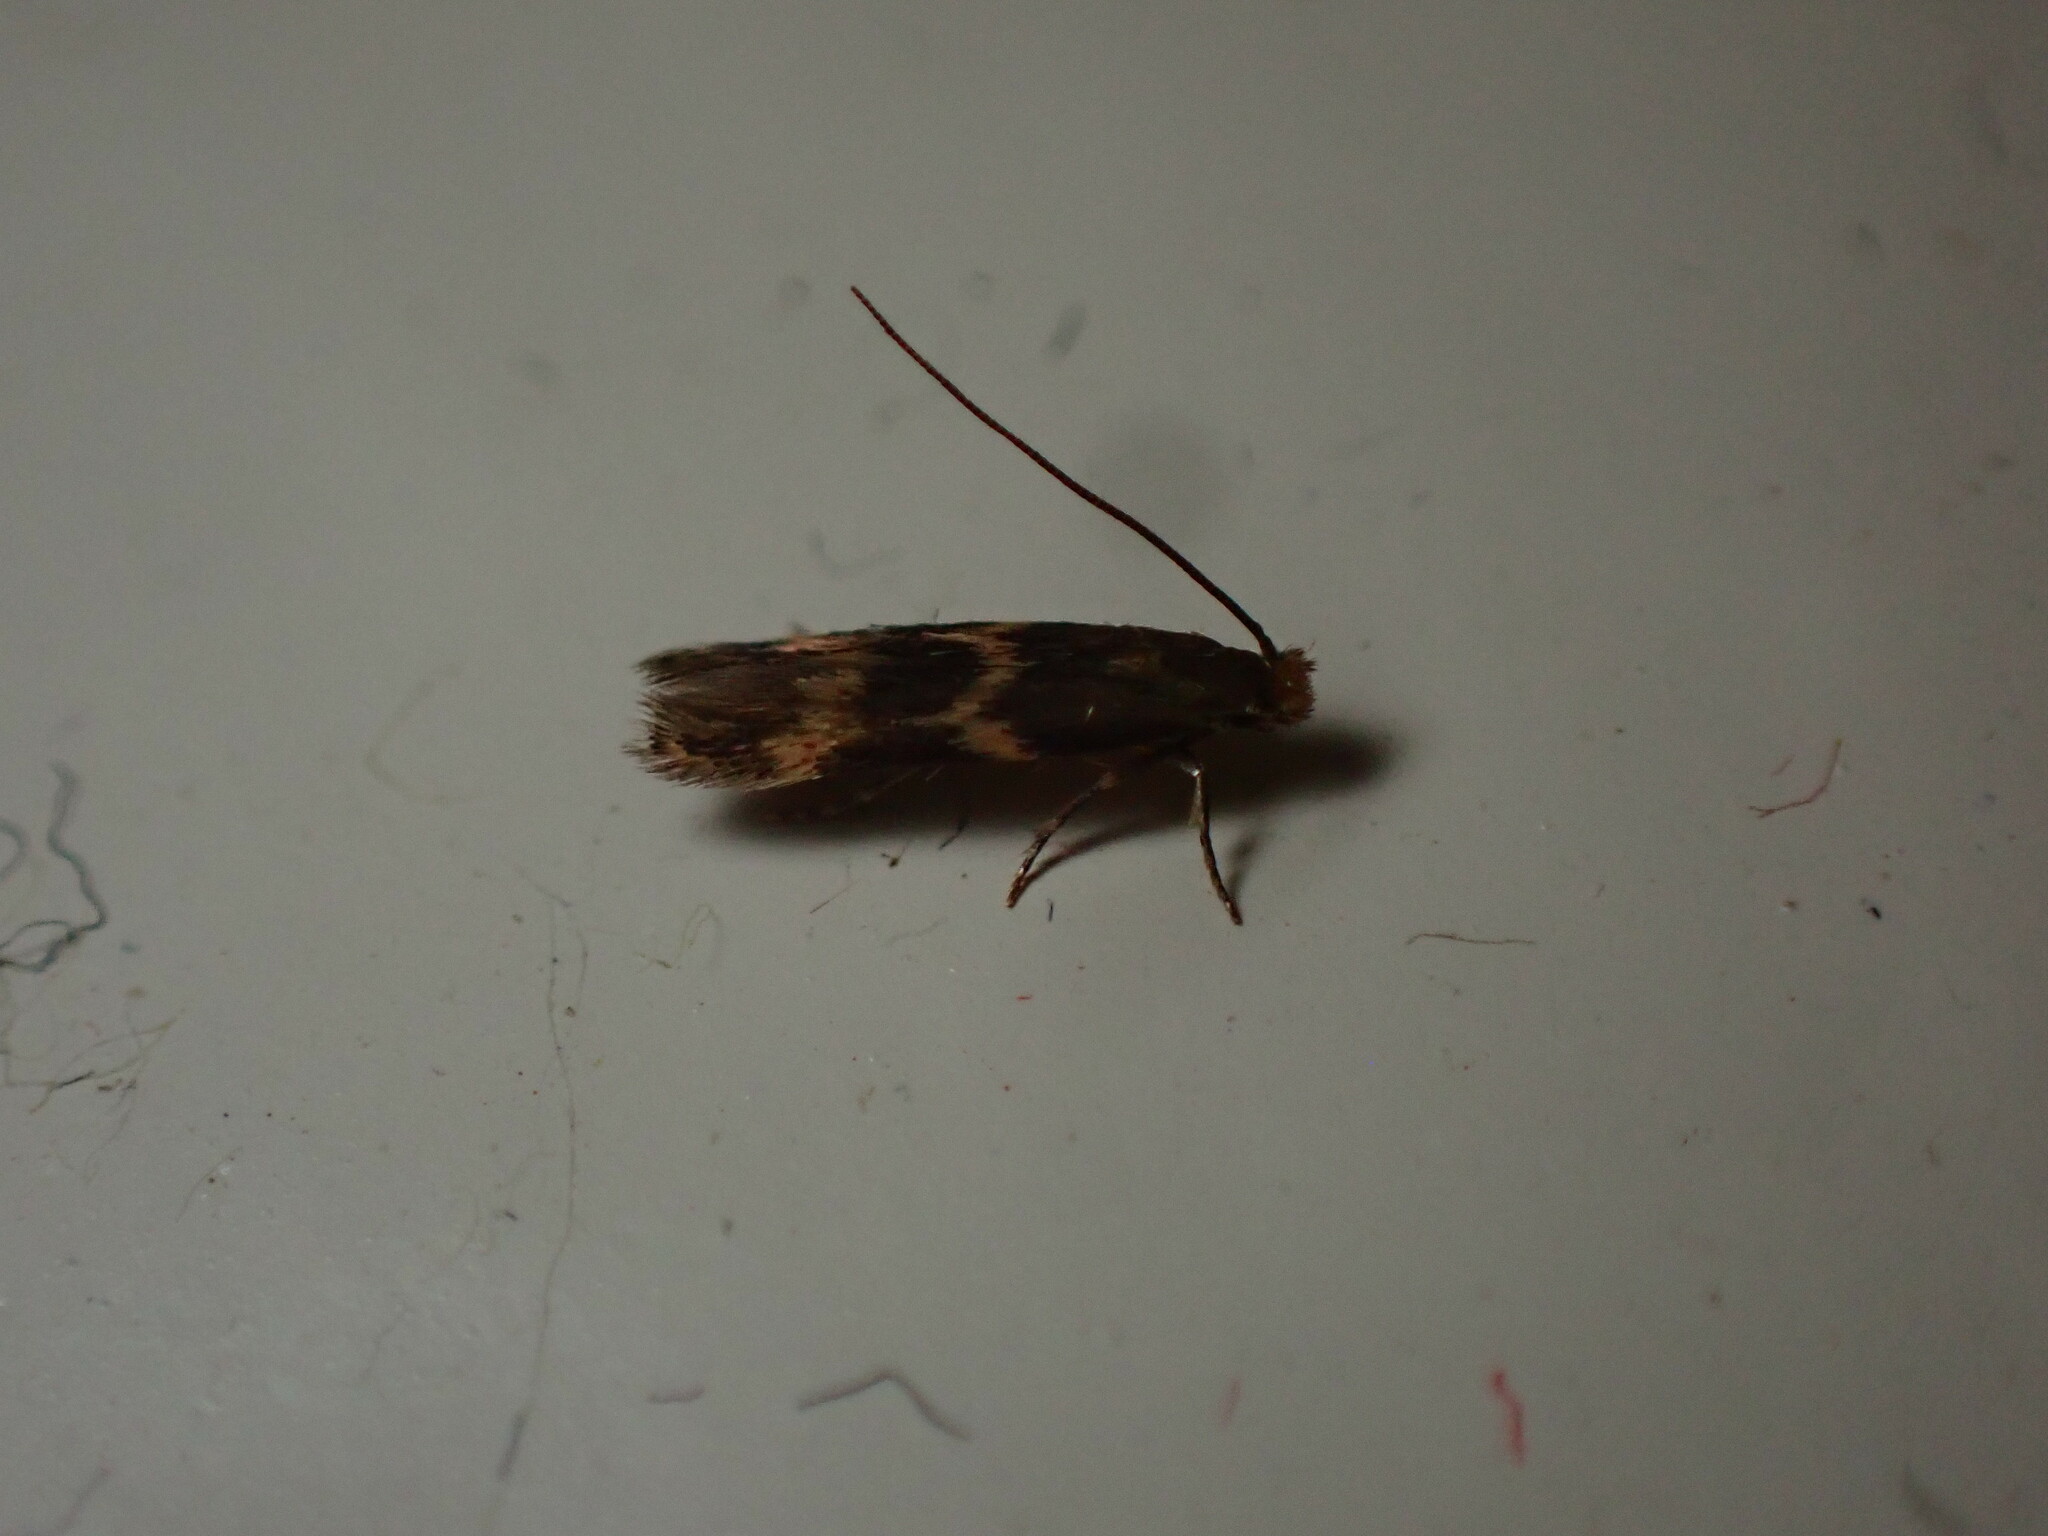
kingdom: Animalia
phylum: Arthropoda
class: Insecta
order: Lepidoptera
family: Tineidae
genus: Oinophila
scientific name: Oinophila v-flava
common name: Yellow v moth
